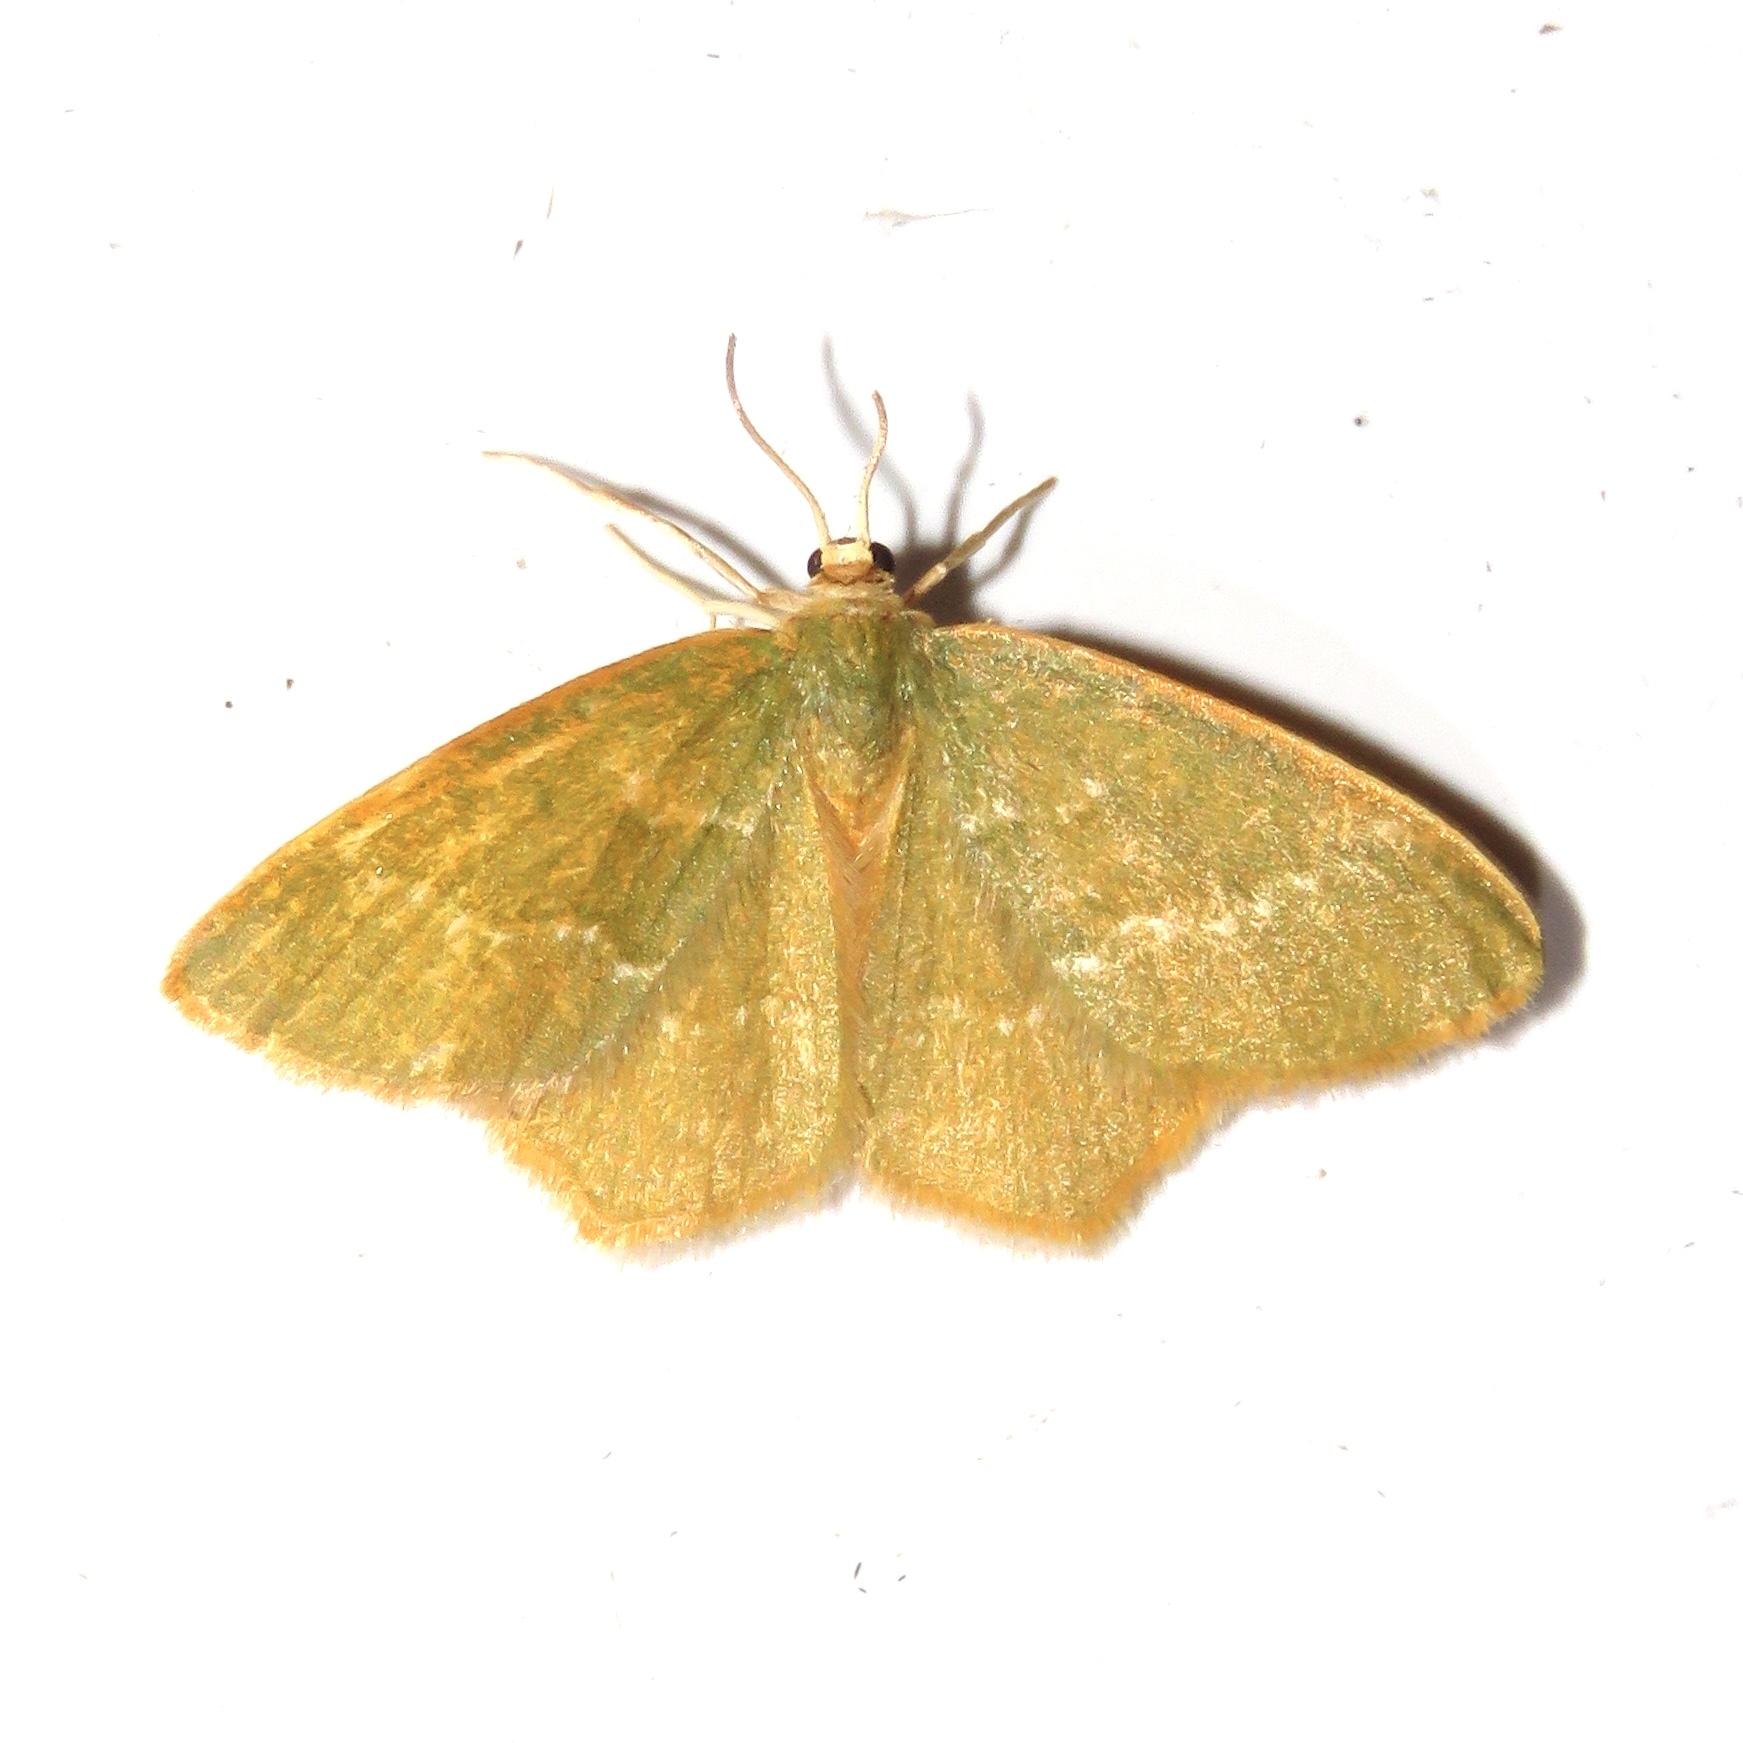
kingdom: Animalia
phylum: Arthropoda
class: Insecta
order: Lepidoptera
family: Geometridae
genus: Thalera
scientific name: Thalera pistasciaria
